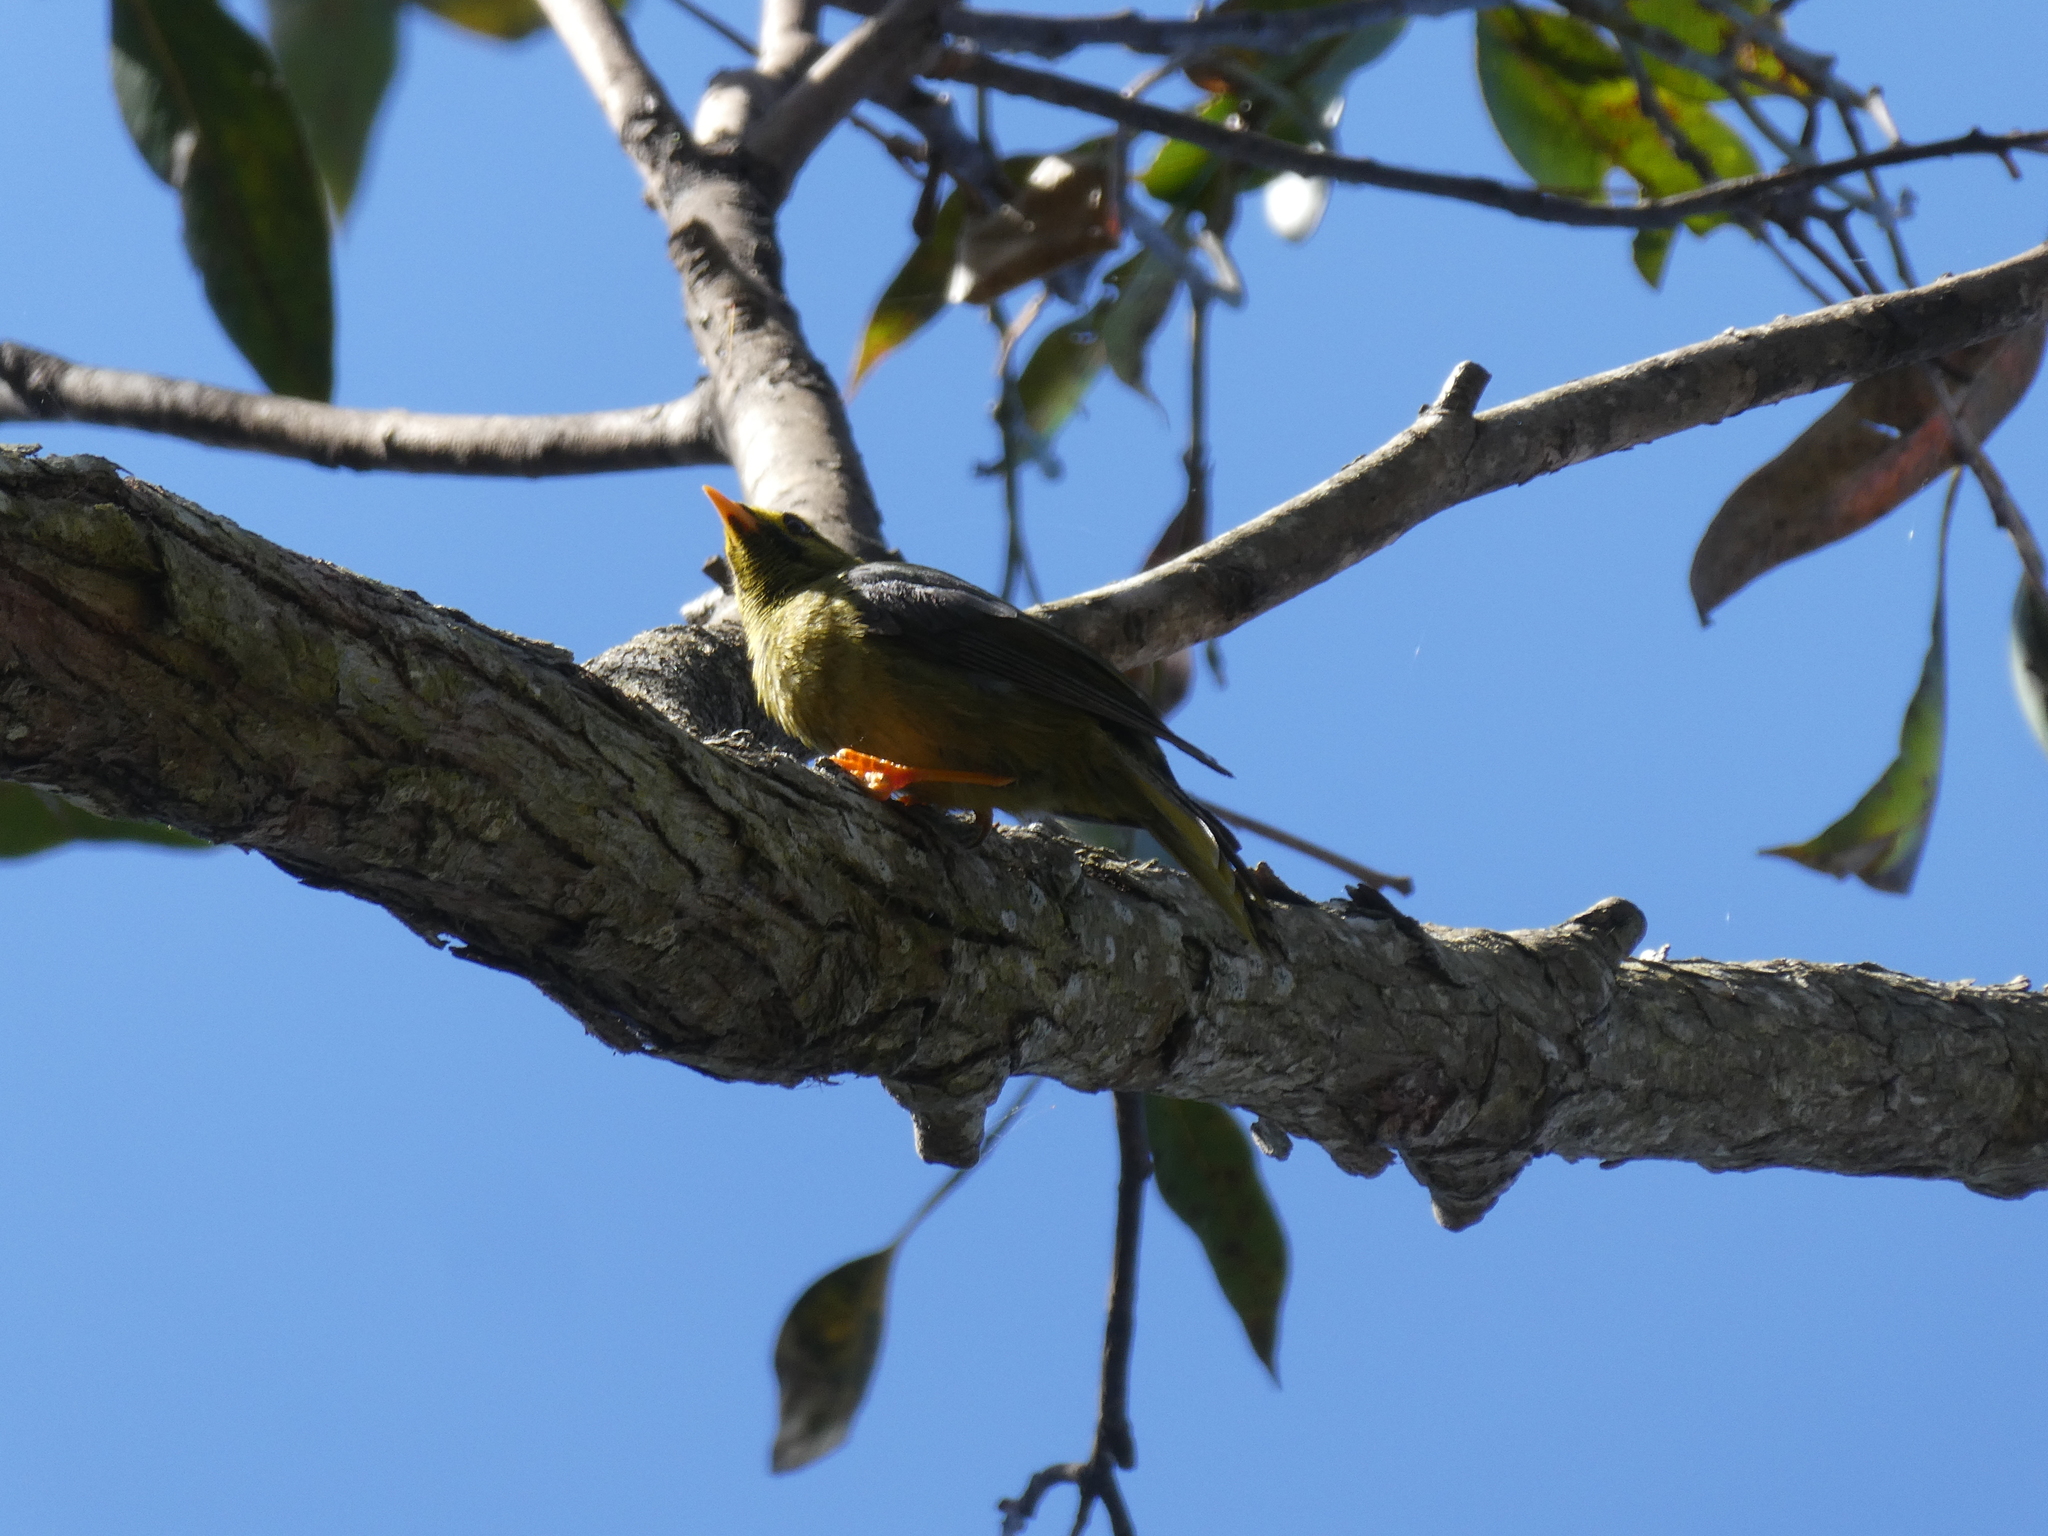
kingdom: Animalia
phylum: Chordata
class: Aves
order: Passeriformes
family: Meliphagidae
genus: Manorina
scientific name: Manorina melanophrys
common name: Bell miner
